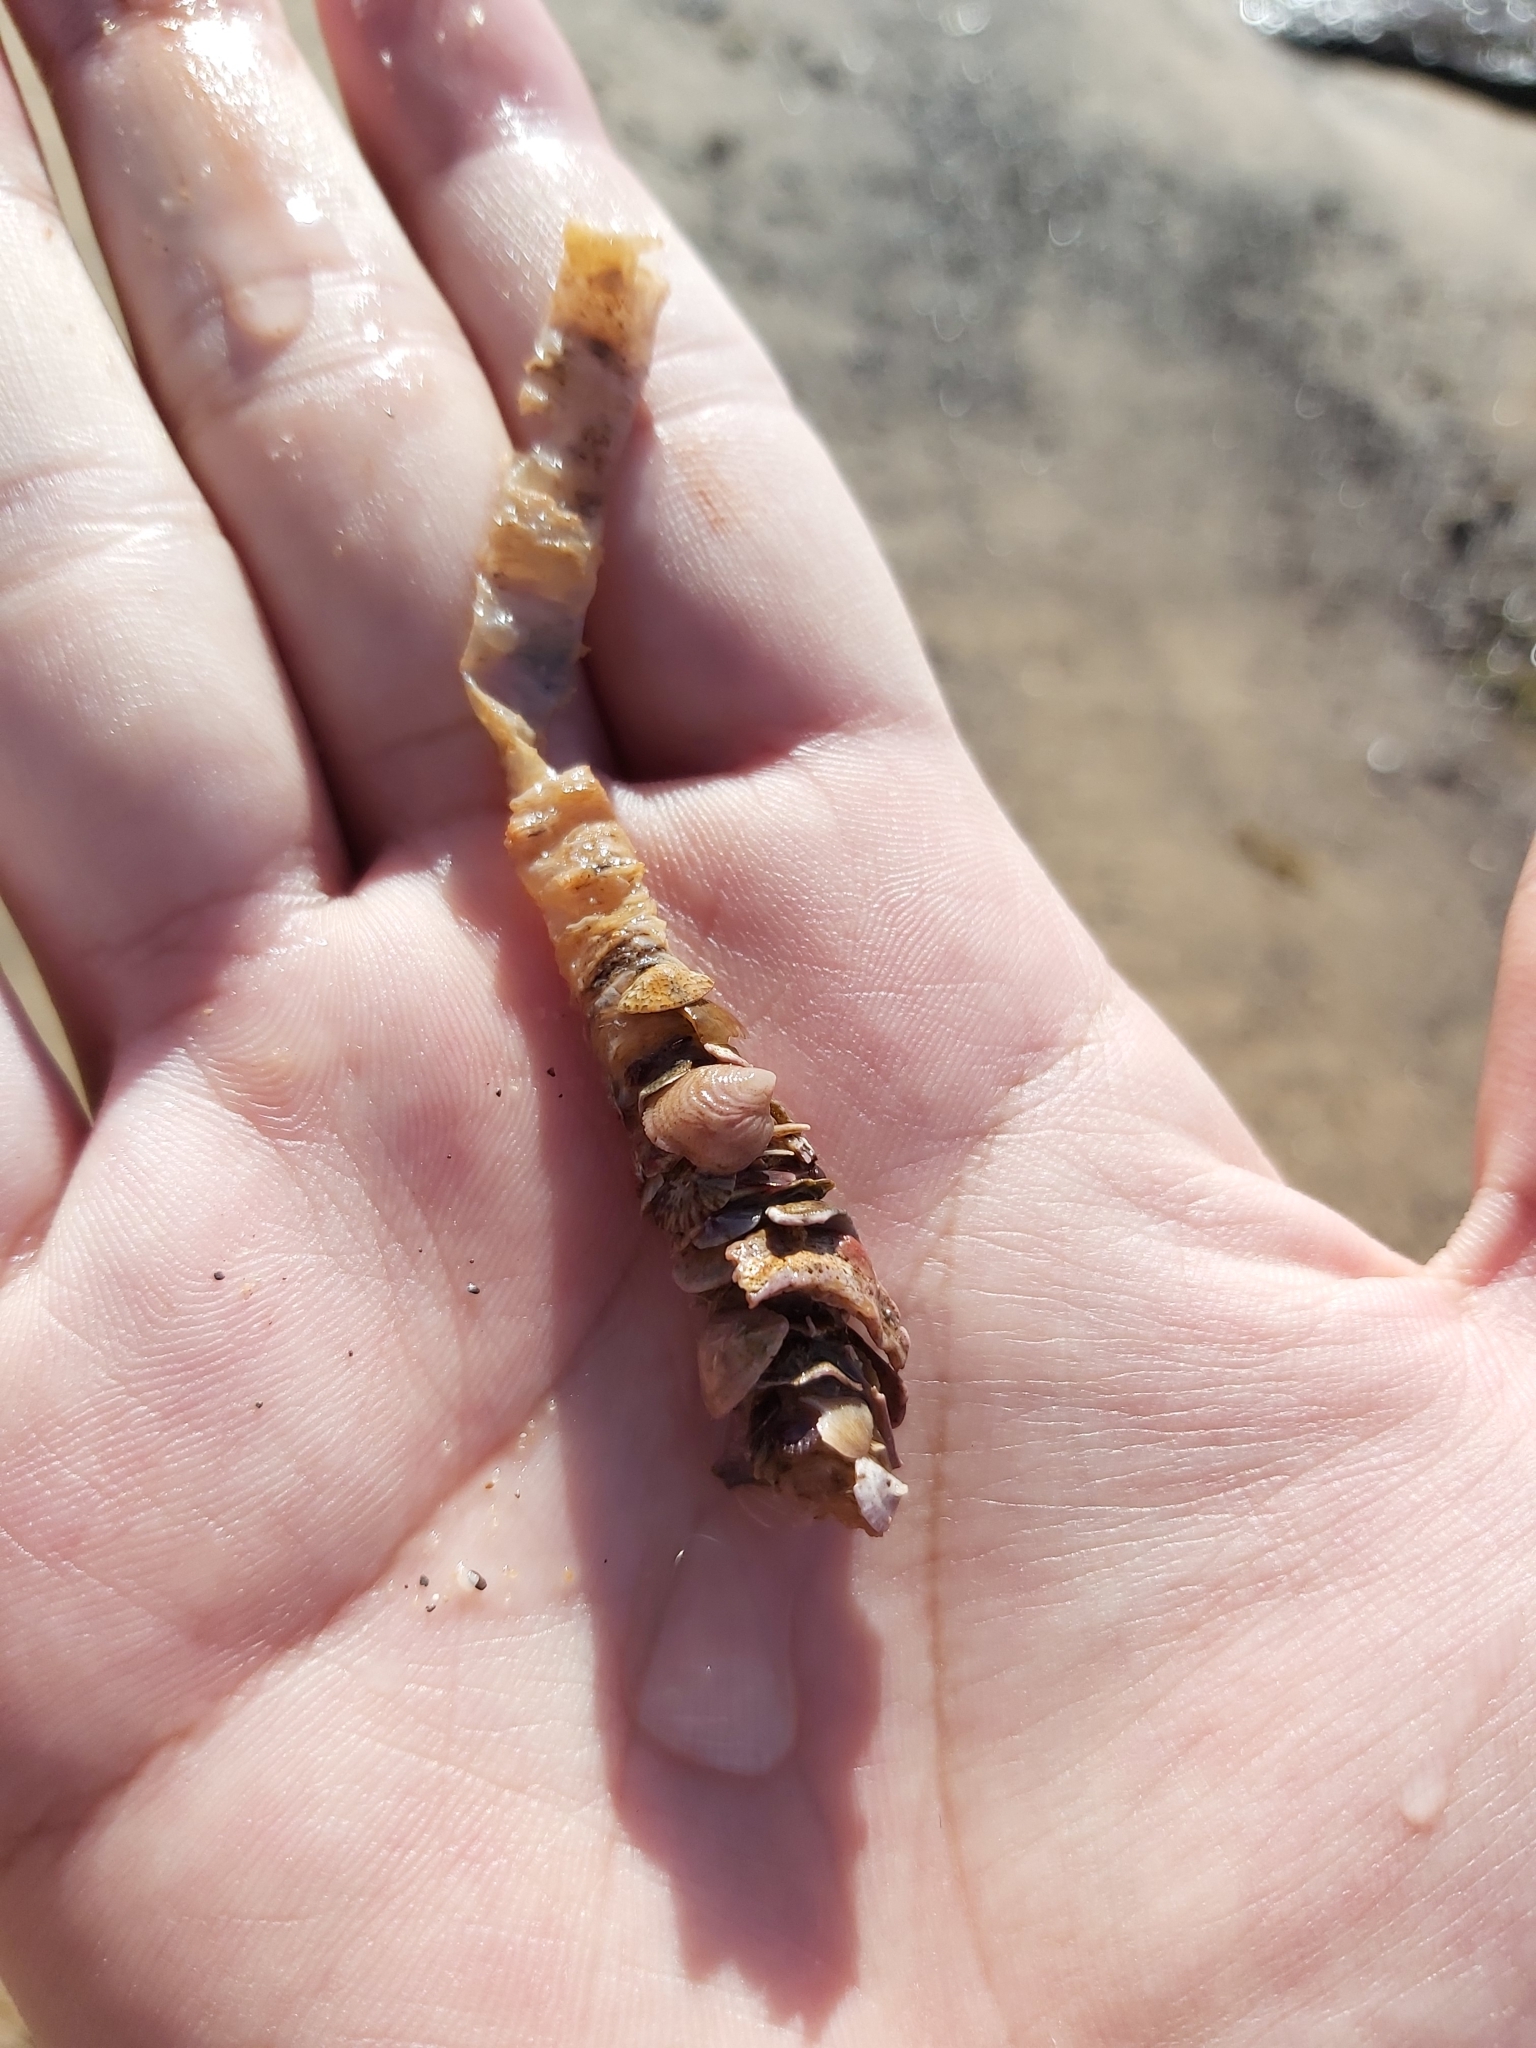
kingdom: Animalia
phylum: Annelida
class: Polychaeta
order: Eunicida
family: Onuphidae
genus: Diopatra
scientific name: Diopatra dentata
